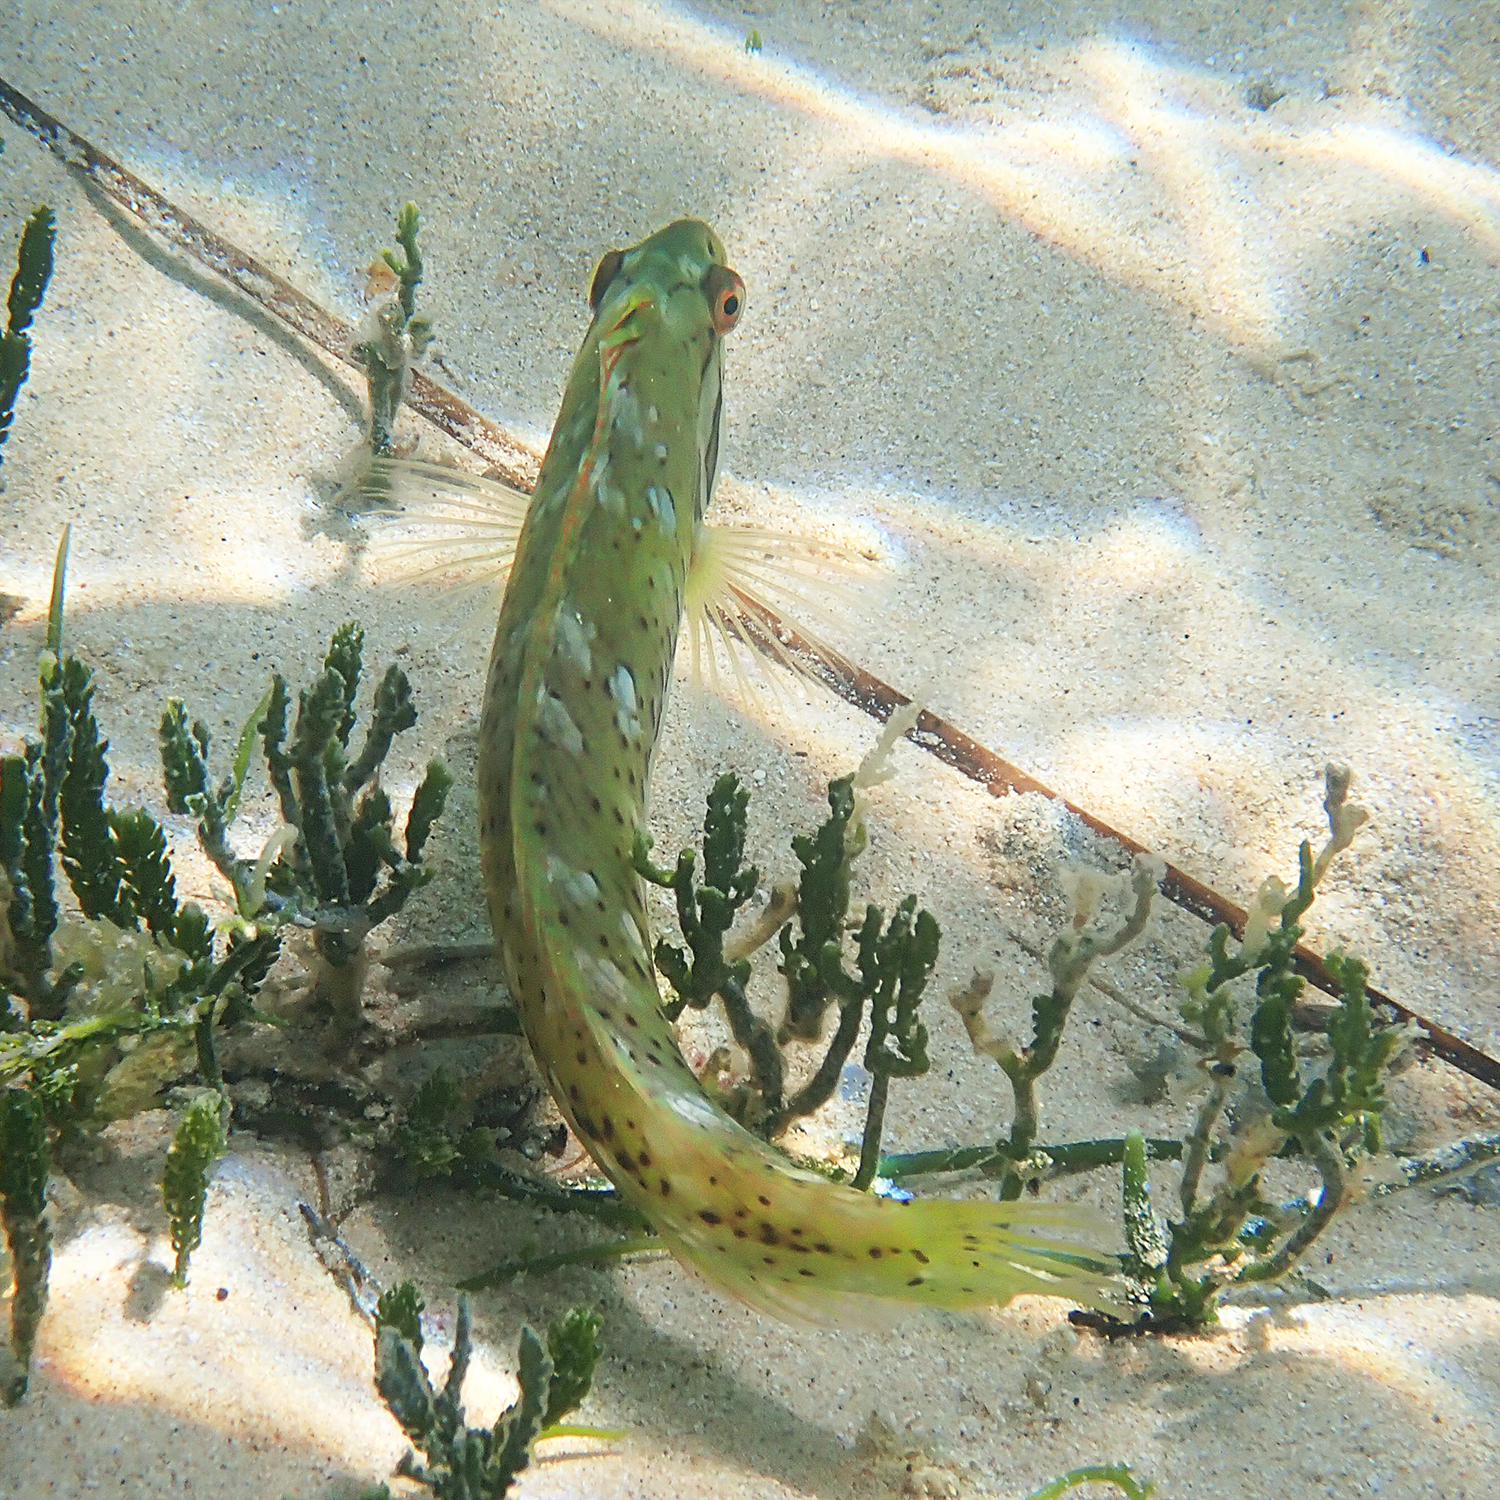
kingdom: Animalia
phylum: Chordata
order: Perciformes
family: Labridae
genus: Novaculoides
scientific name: Novaculoides macrolepidotus
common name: Seagrass wrasse
